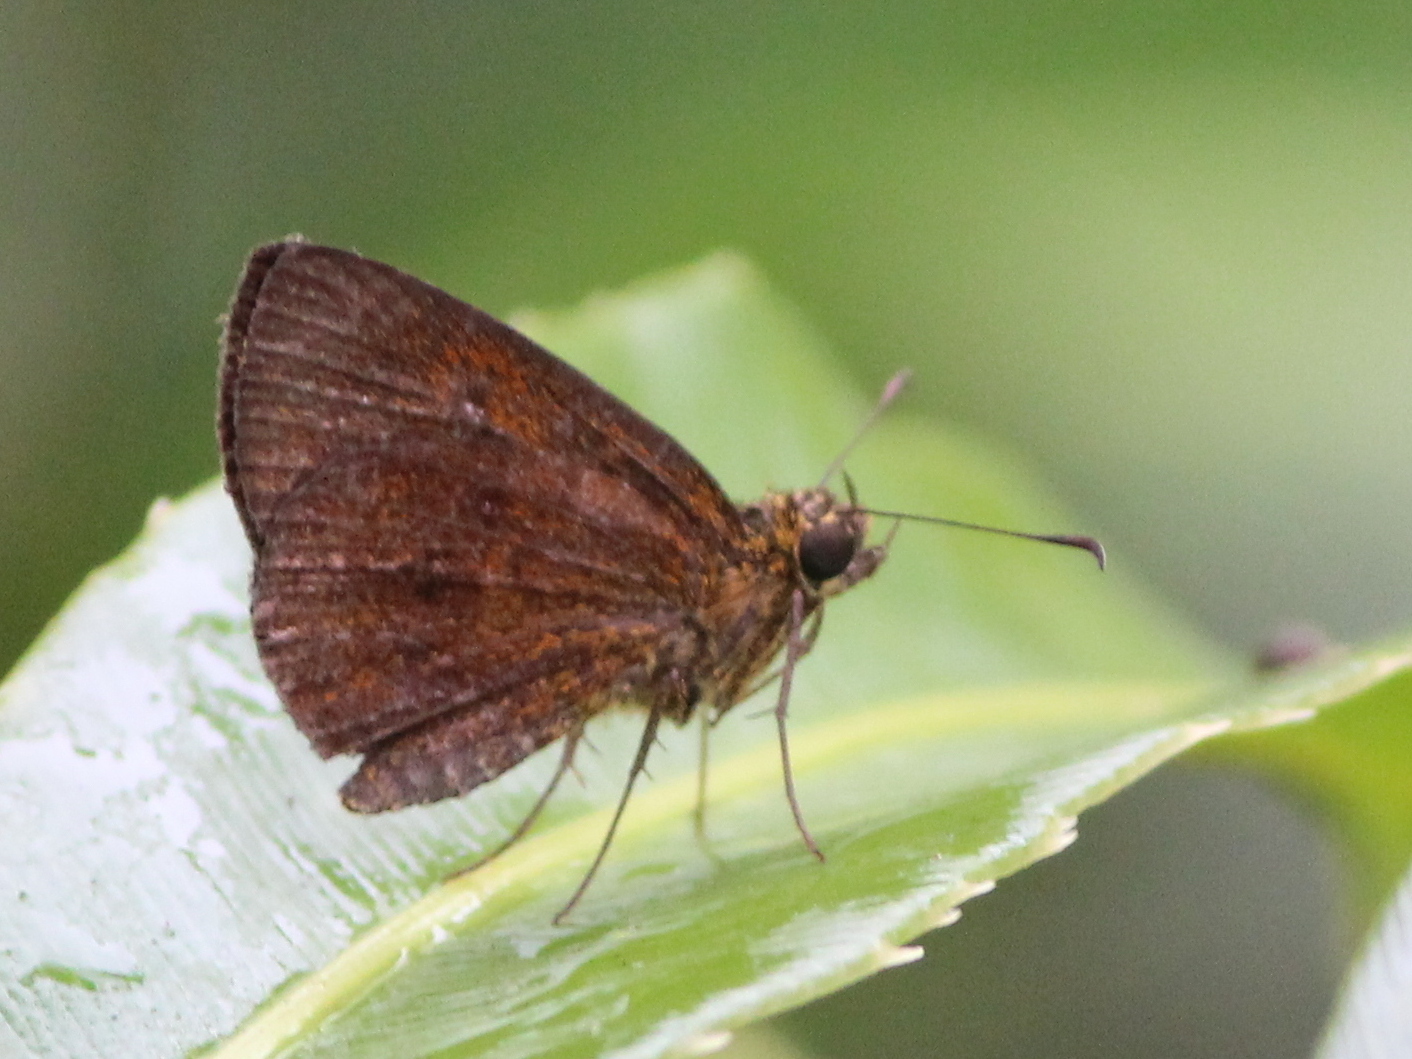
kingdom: Animalia
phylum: Arthropoda
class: Insecta
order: Lepidoptera
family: Hesperiidae
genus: Iambrix
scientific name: Iambrix salsala
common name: Chestnut bob
